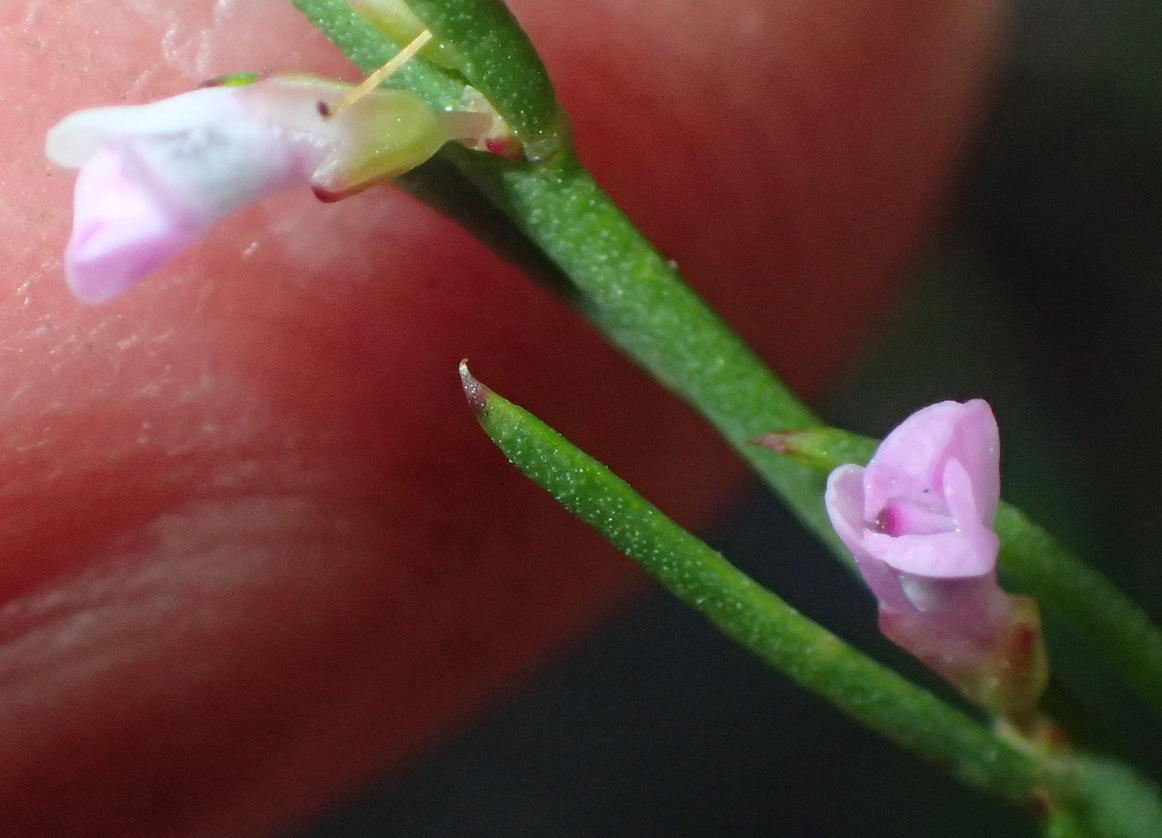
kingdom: Plantae
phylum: Tracheophyta
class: Magnoliopsida
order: Fabales
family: Polygalaceae
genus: Muraltia
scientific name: Muraltia leptorhiza
